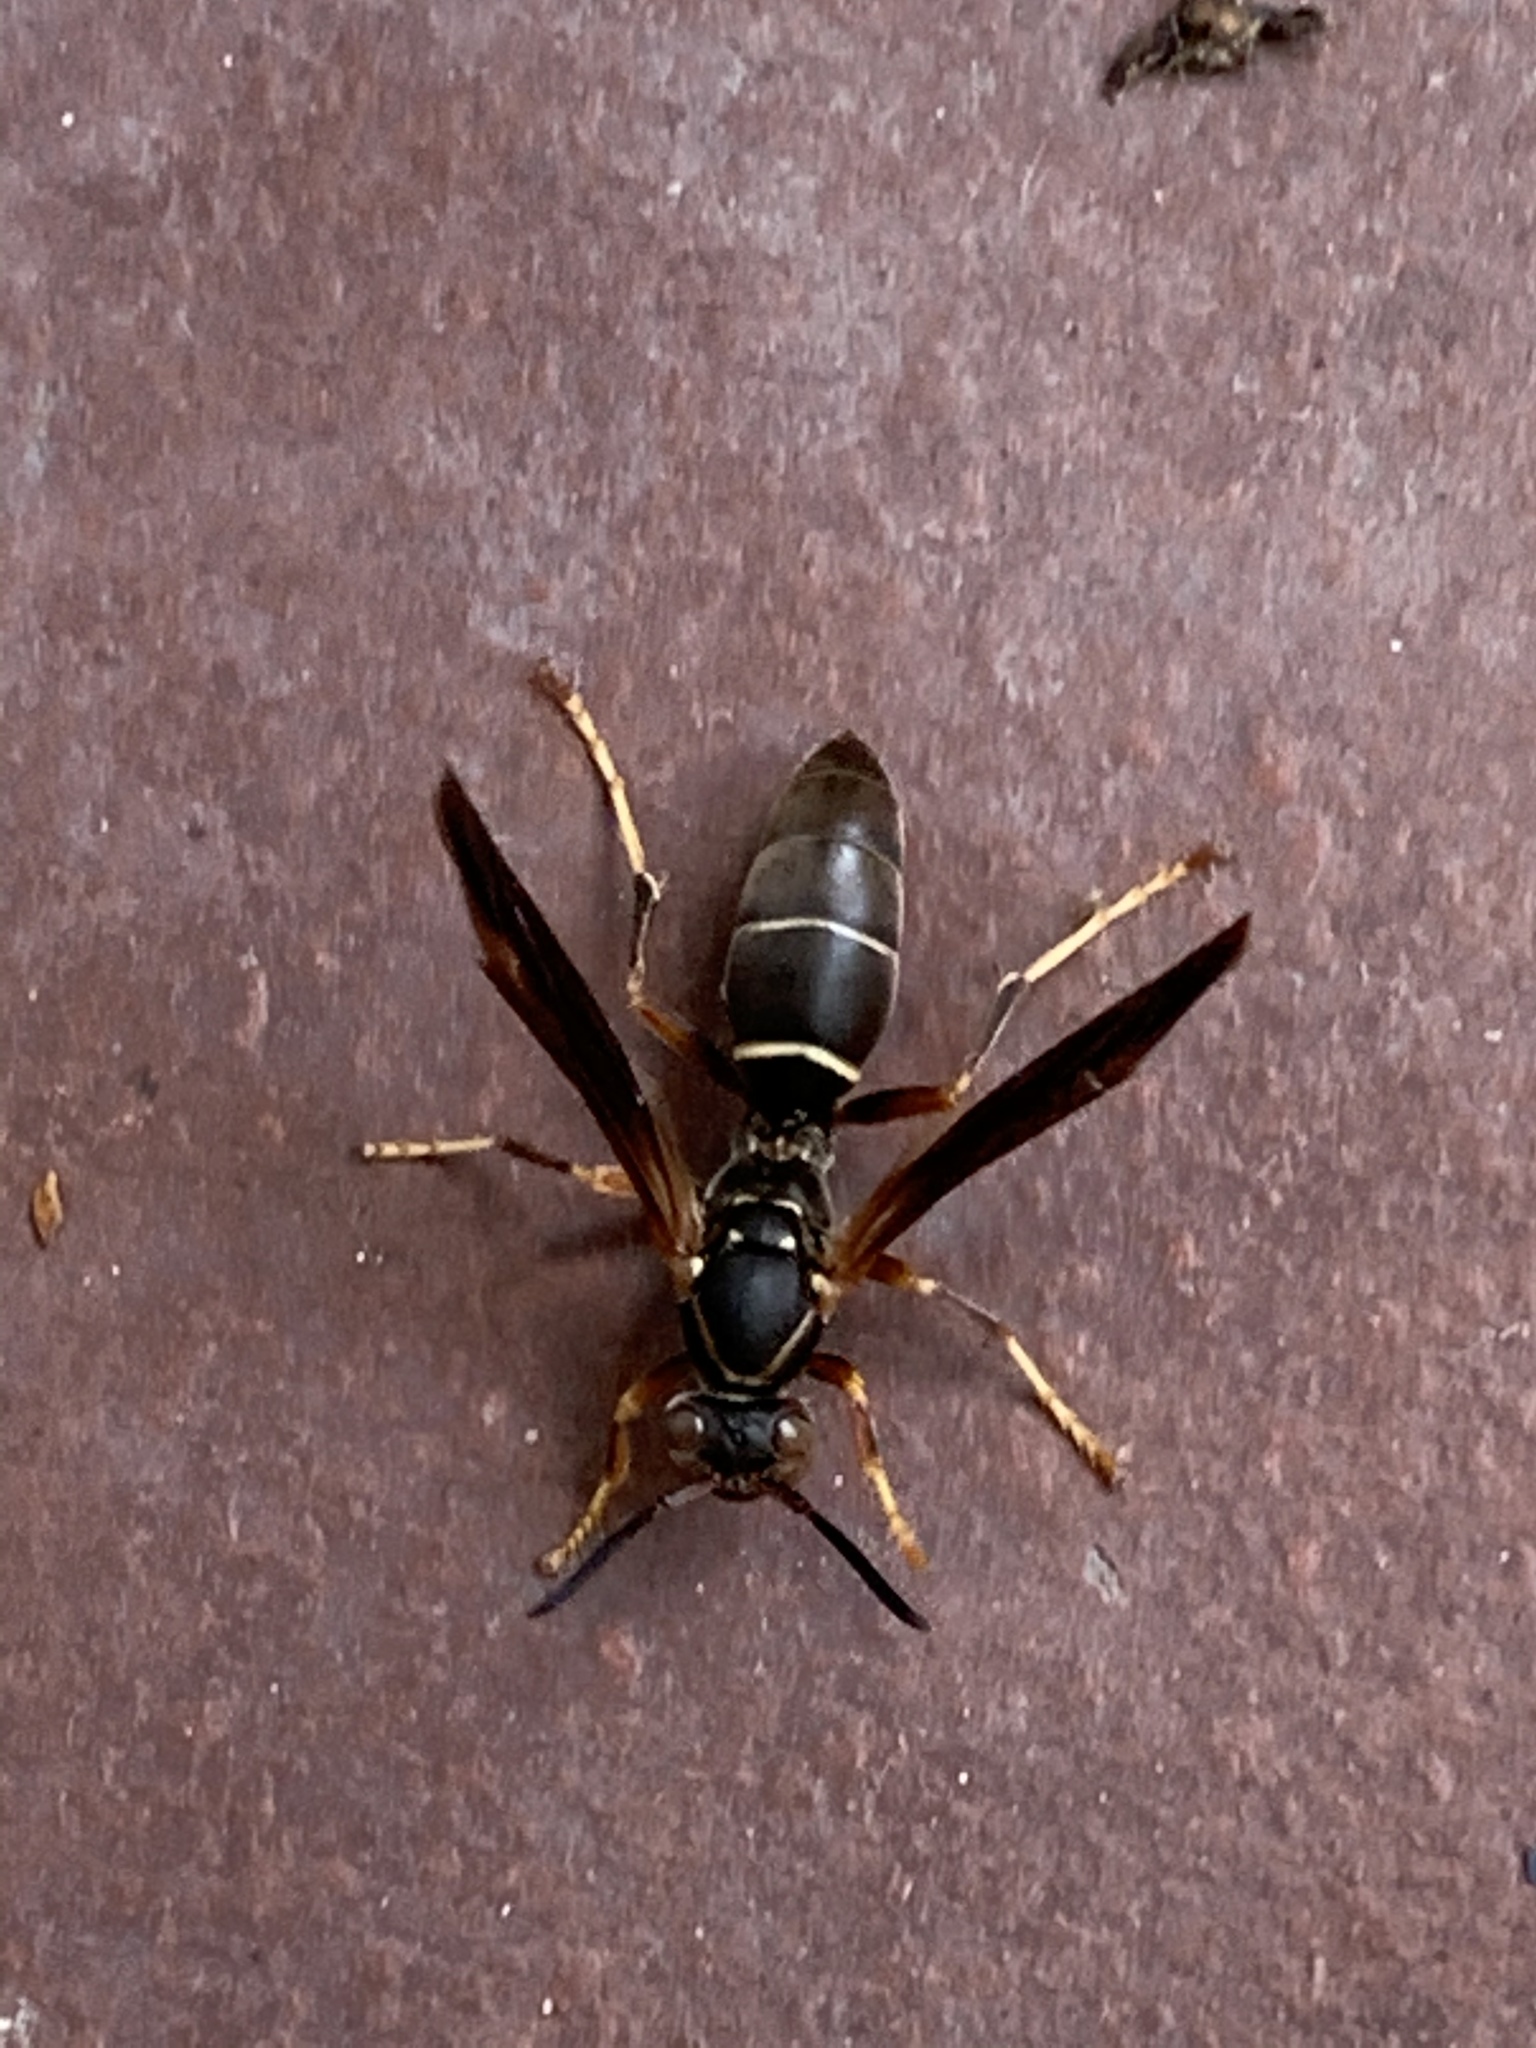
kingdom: Animalia
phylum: Arthropoda
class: Insecta
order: Hymenoptera
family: Eumenidae
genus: Polistes
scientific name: Polistes fuscatus
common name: Dark paper wasp
